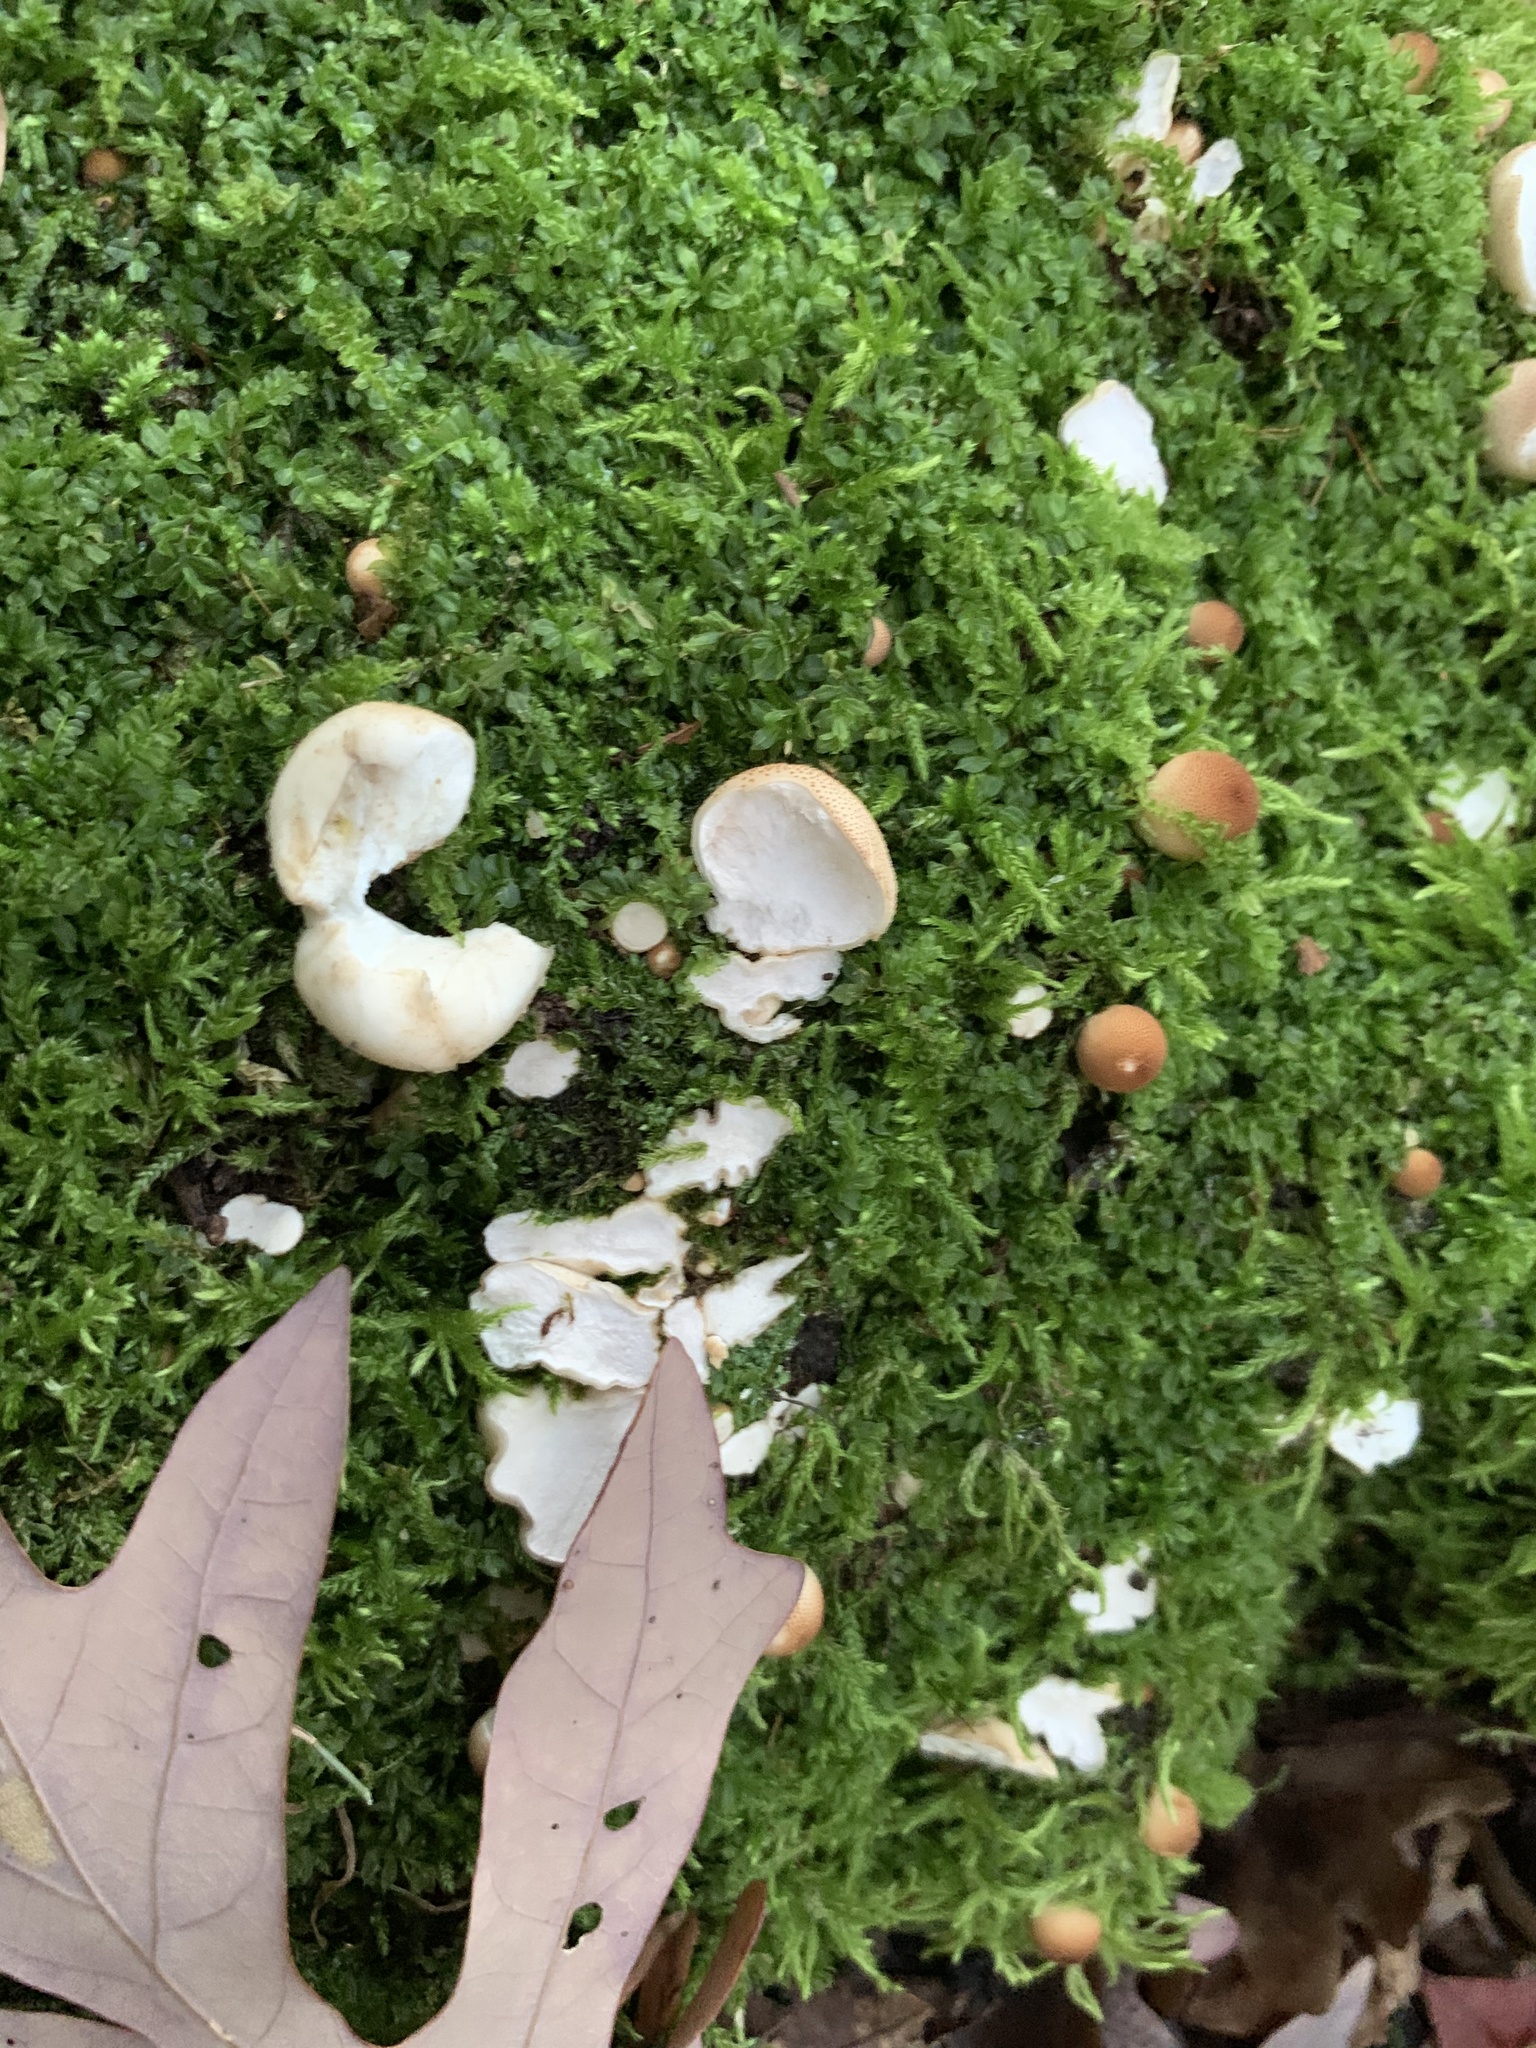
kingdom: Fungi
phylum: Basidiomycota
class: Agaricomycetes
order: Agaricales
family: Lycoperdaceae
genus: Apioperdon
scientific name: Apioperdon pyriforme
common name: Pear-shaped puffball
